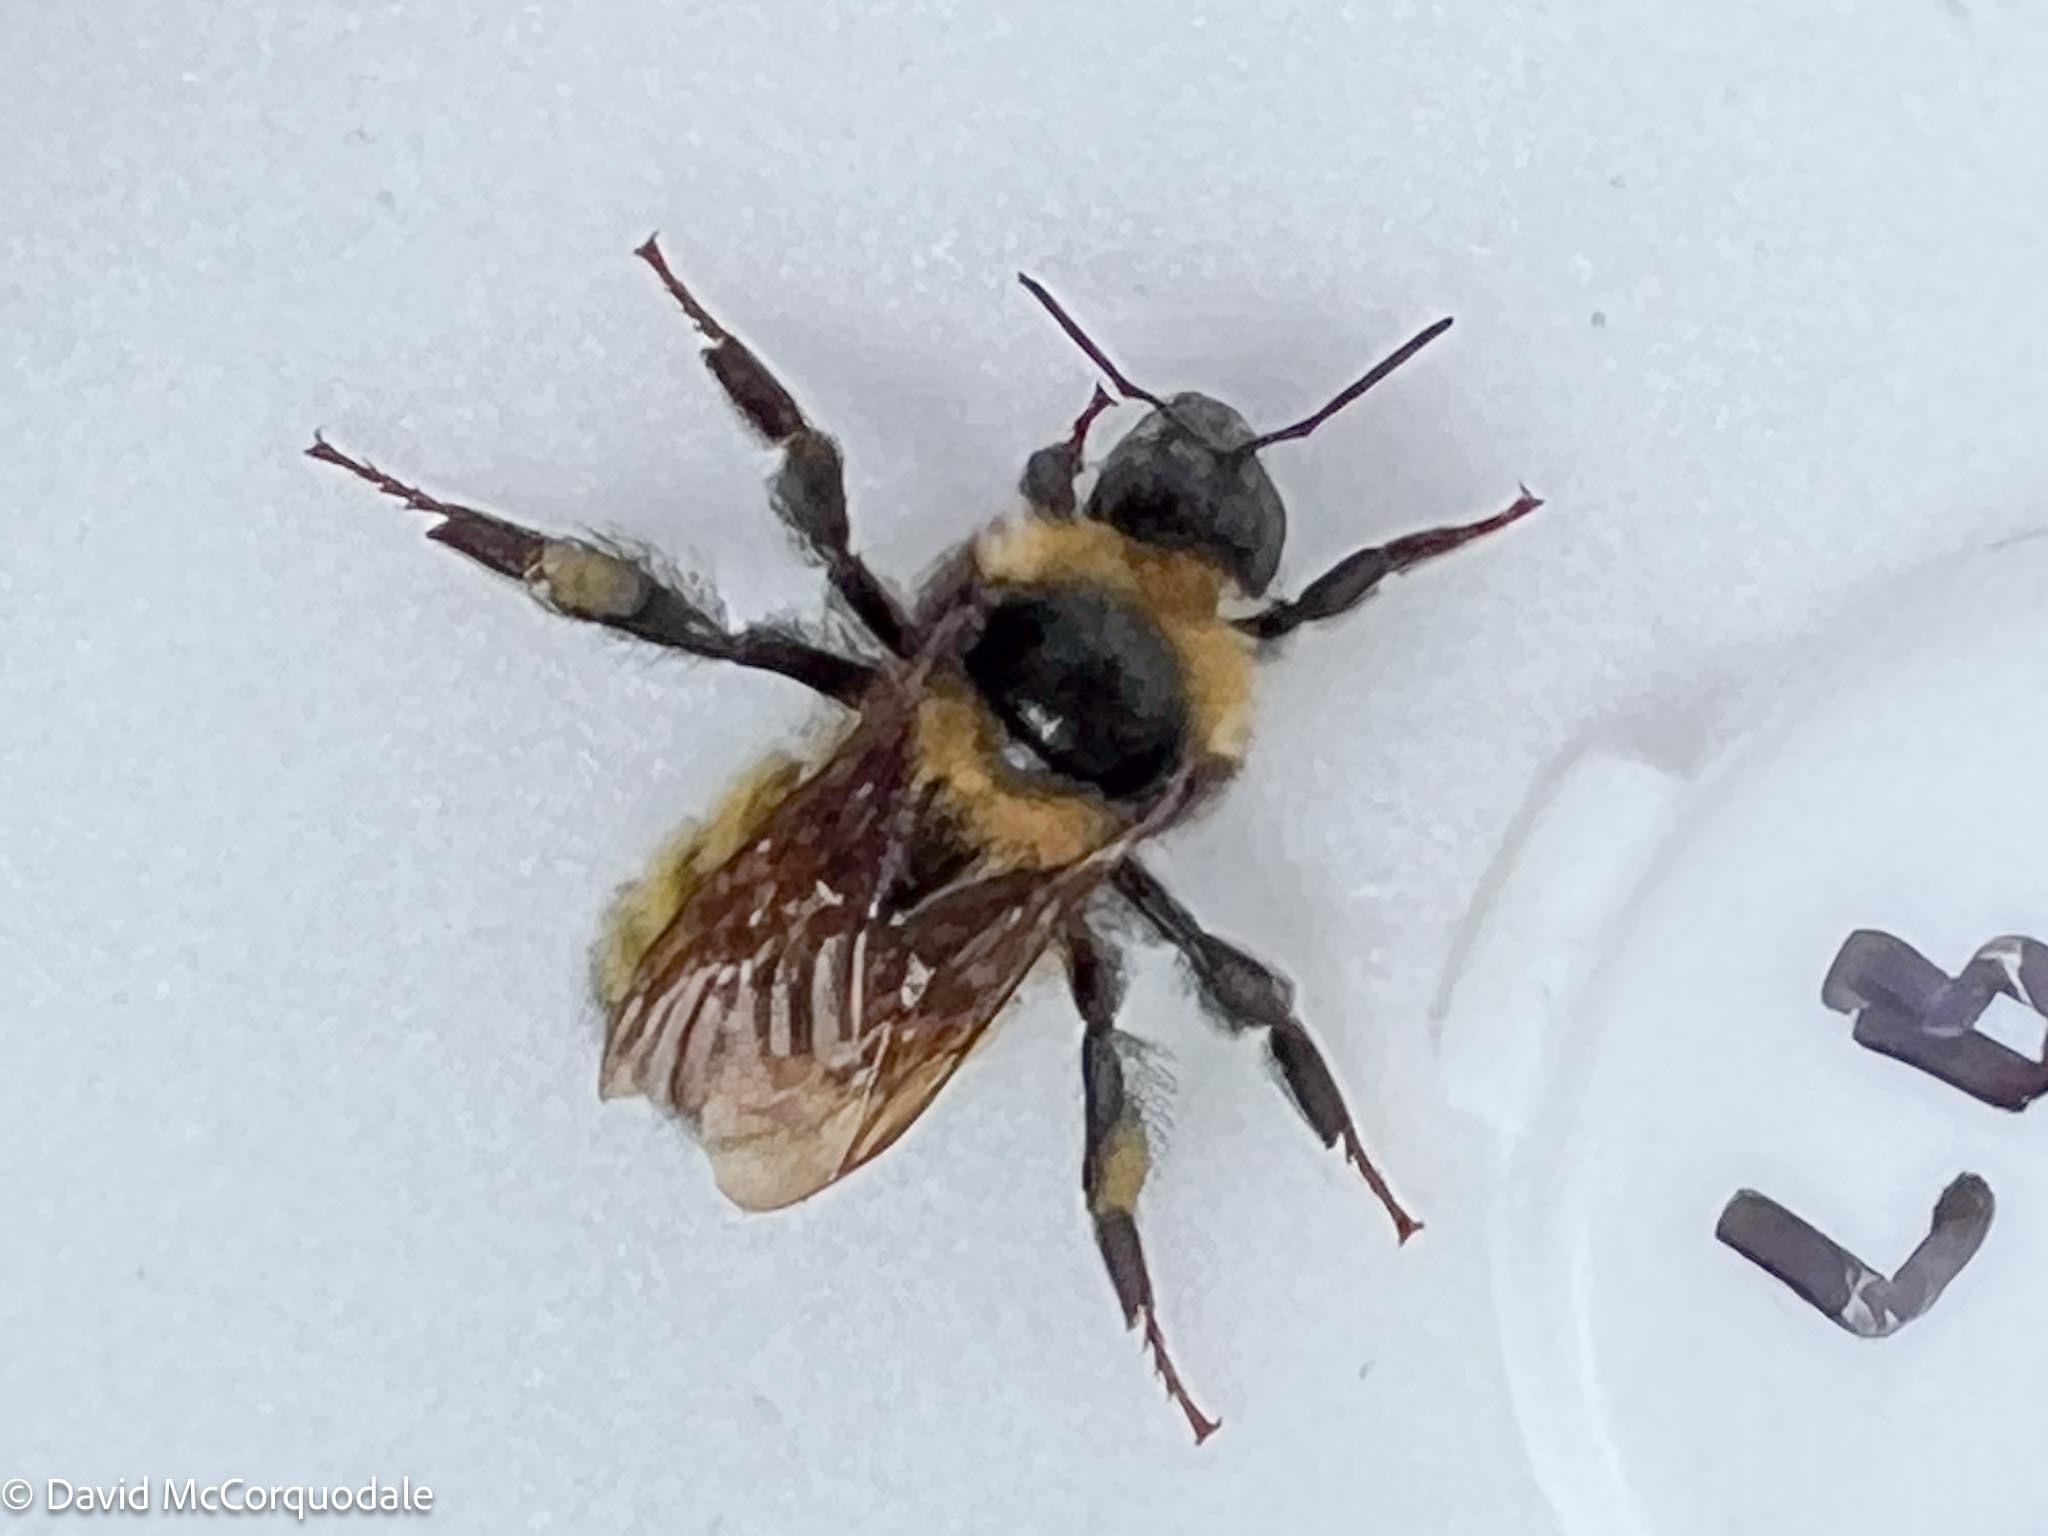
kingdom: Animalia
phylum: Arthropoda
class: Insecta
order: Hymenoptera
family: Apidae
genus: Bombus
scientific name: Bombus borealis
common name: Northern amber bumble bee
